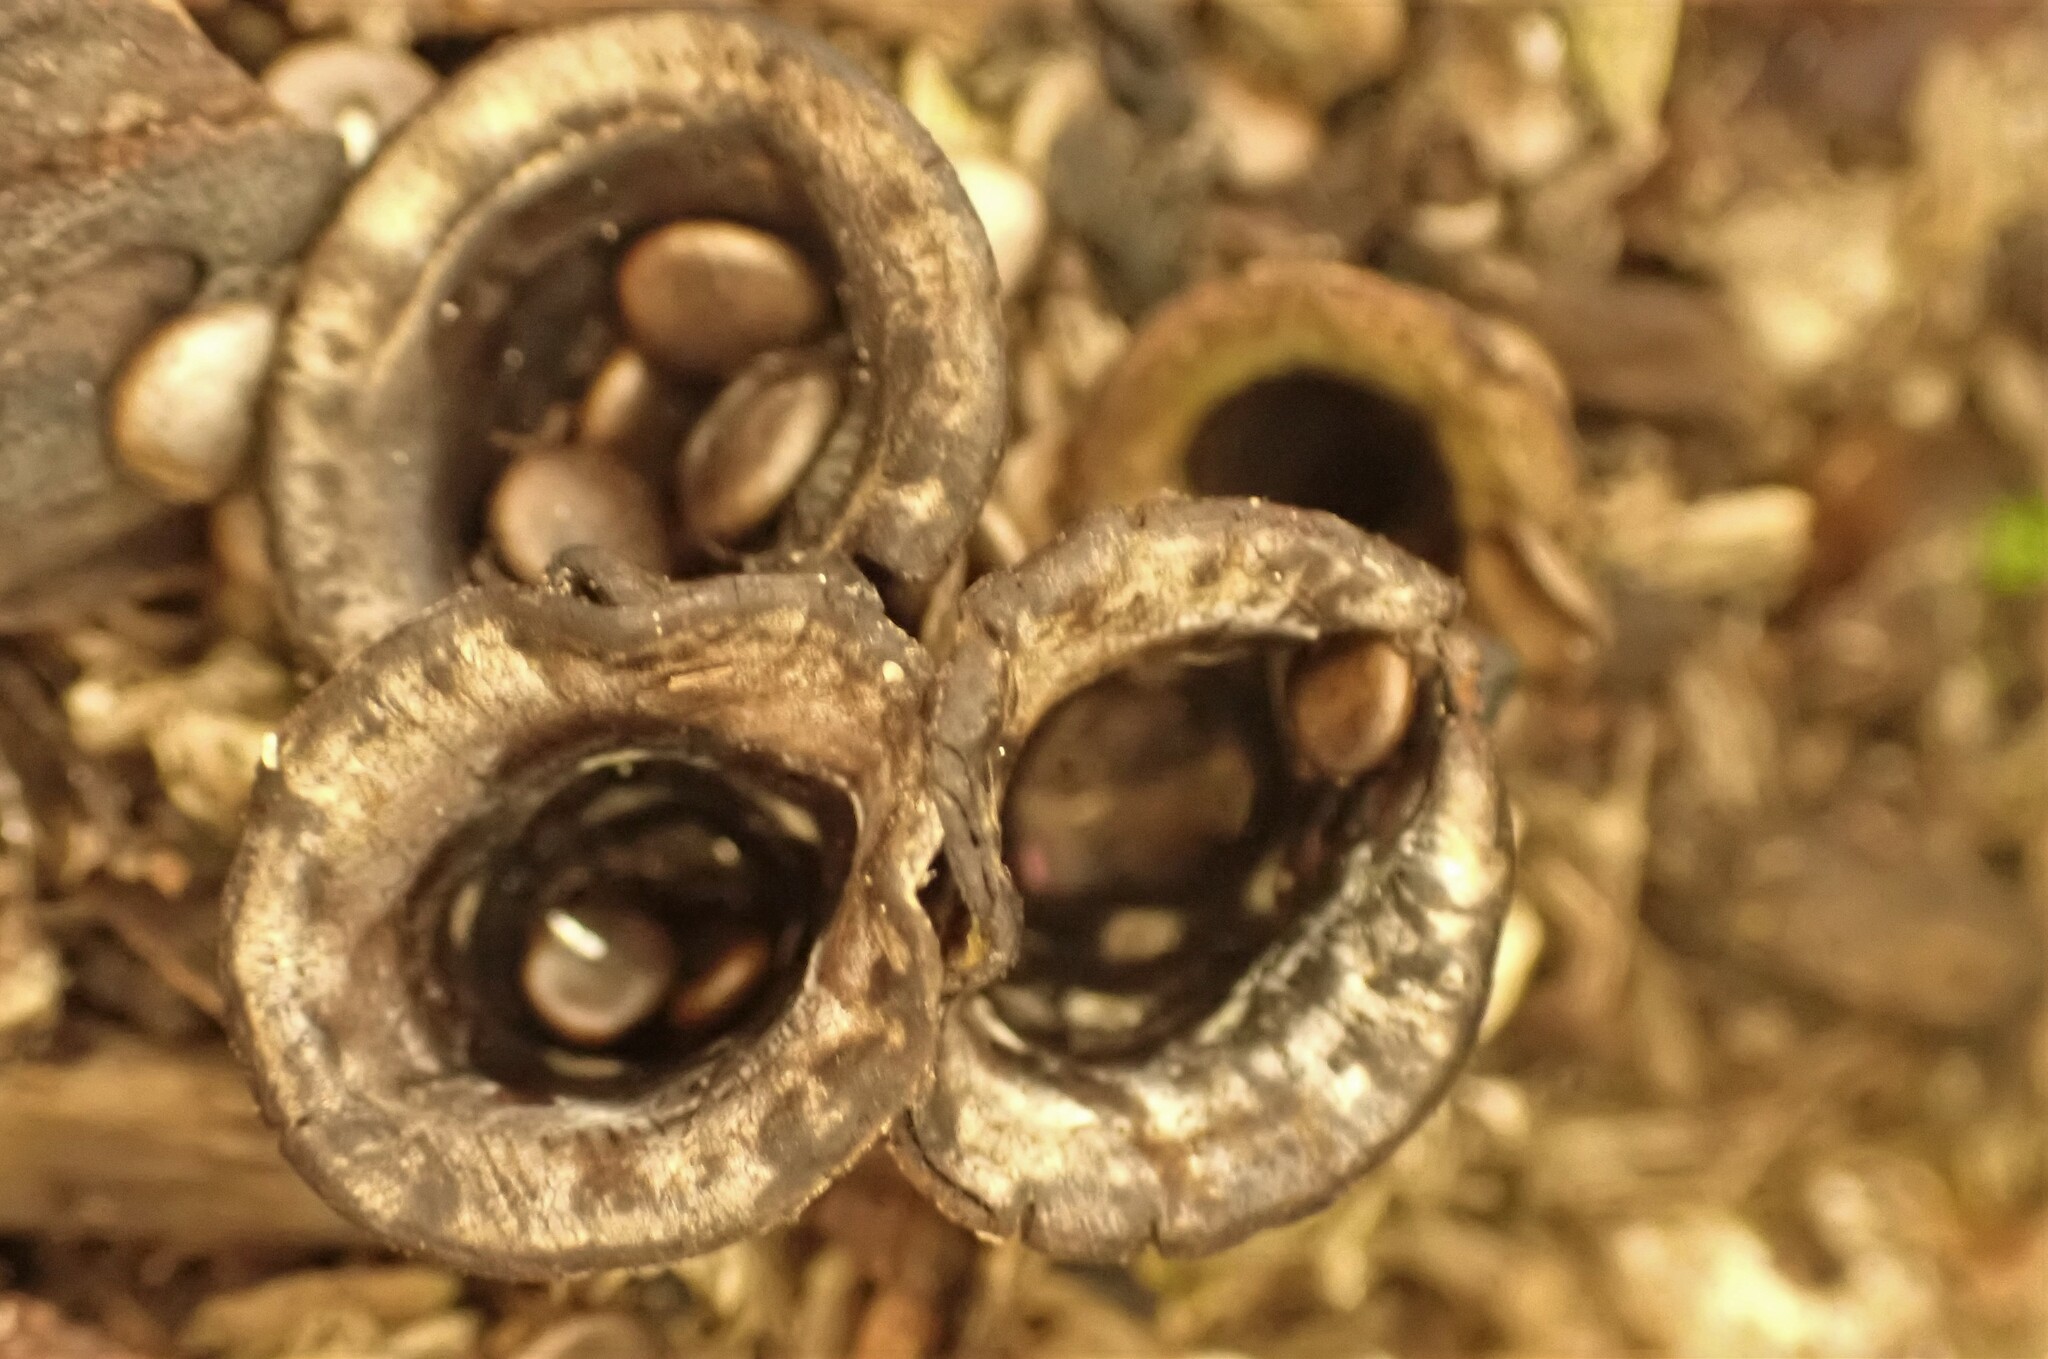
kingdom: Fungi
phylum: Basidiomycota
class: Agaricomycetes
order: Agaricales
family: Agaricaceae
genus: Cyathus
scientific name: Cyathus olla
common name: Field bird's nest
